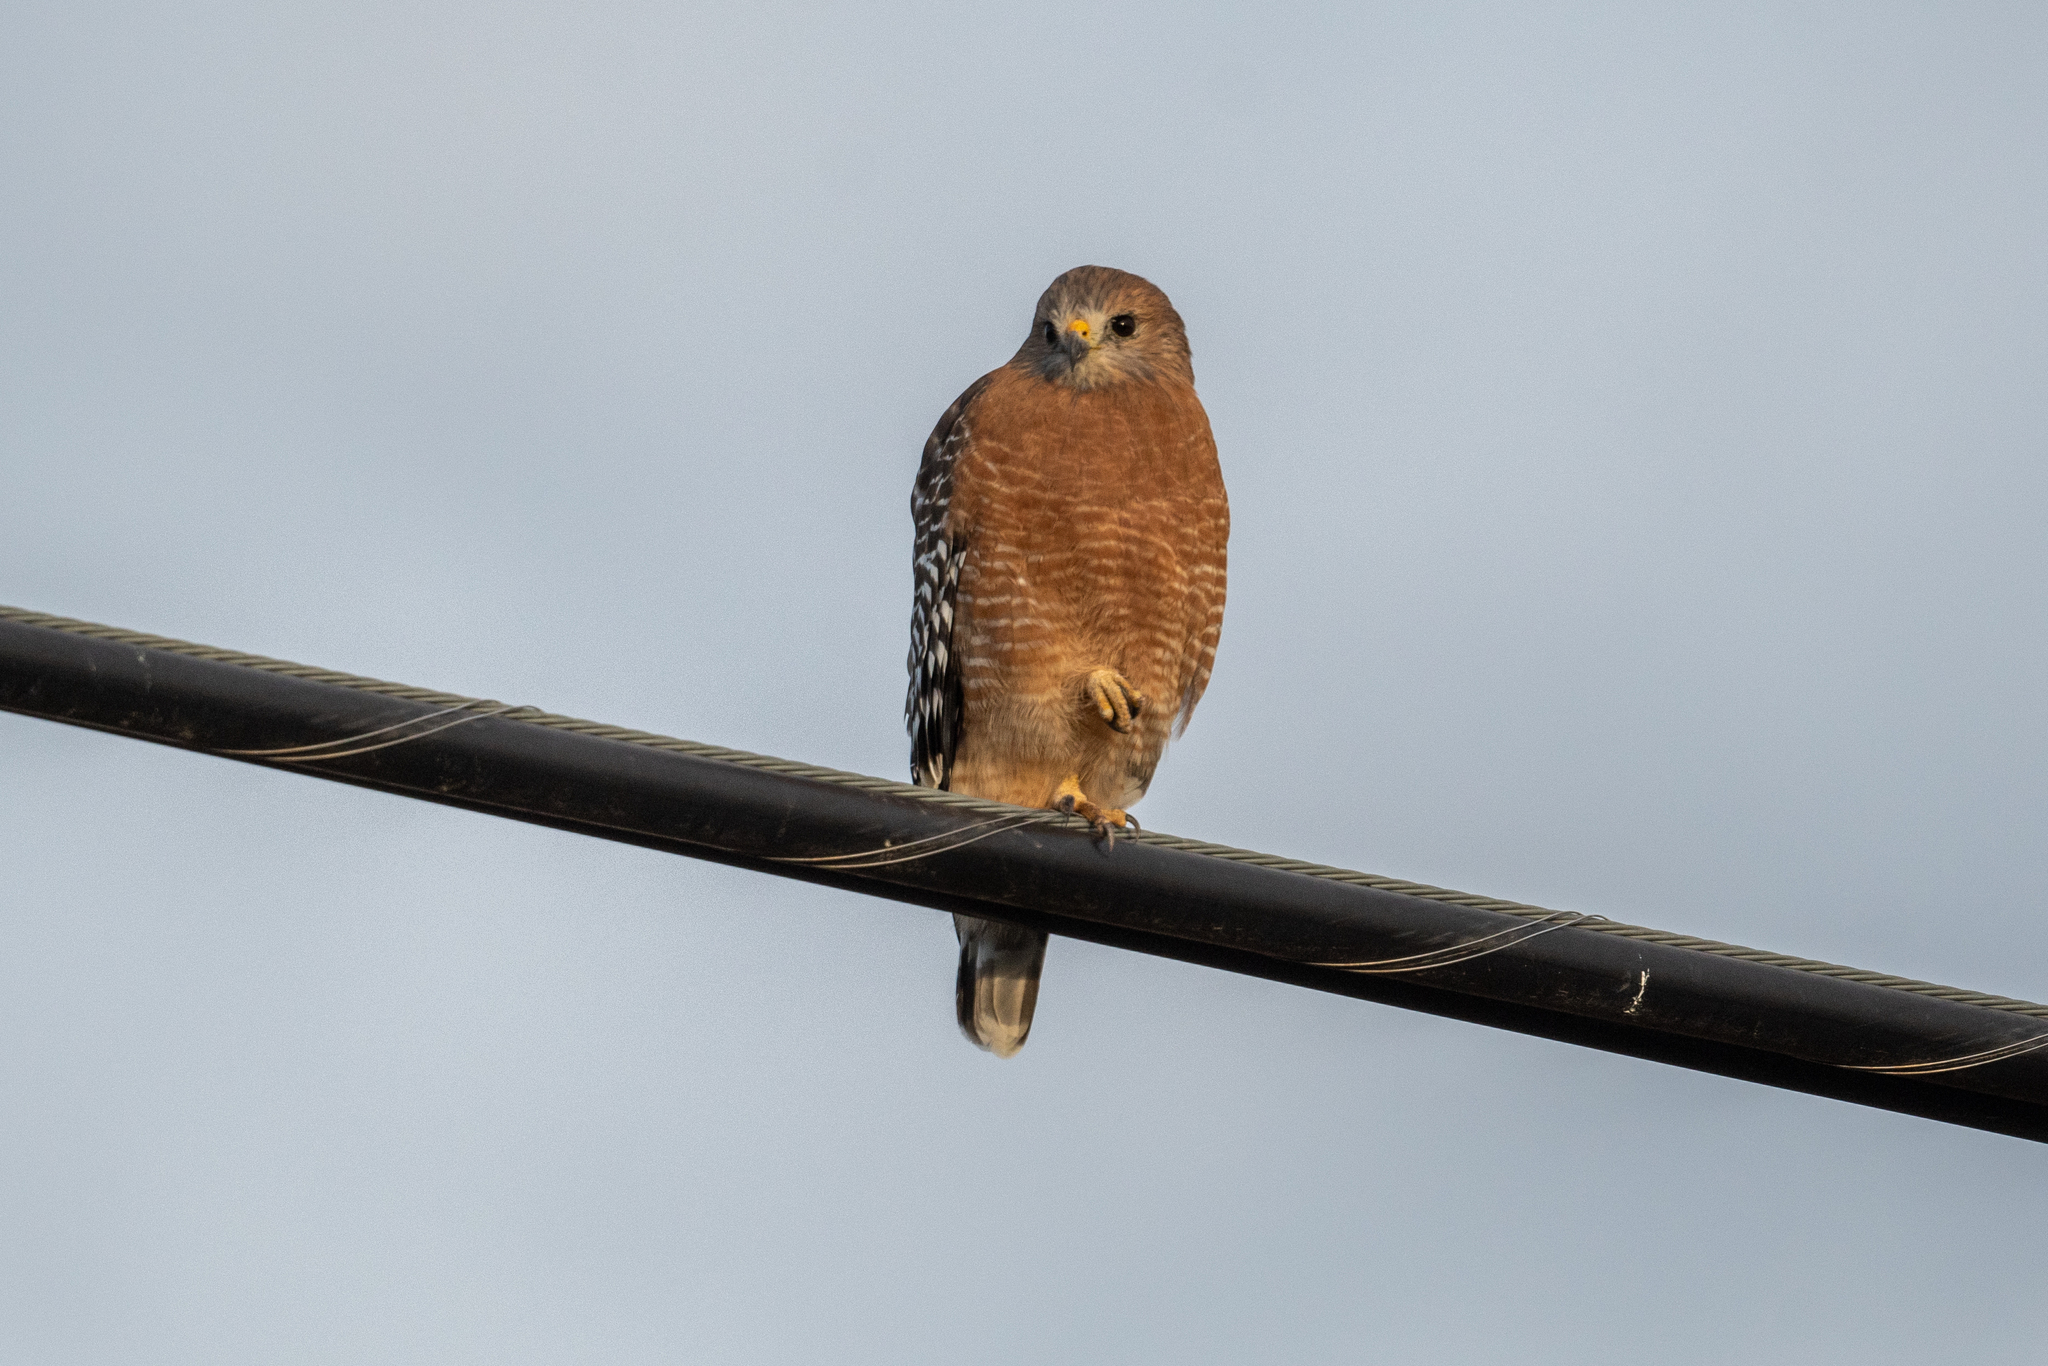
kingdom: Animalia
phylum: Chordata
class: Aves
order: Accipitriformes
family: Accipitridae
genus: Buteo
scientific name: Buteo lineatus
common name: Red-shouldered hawk
